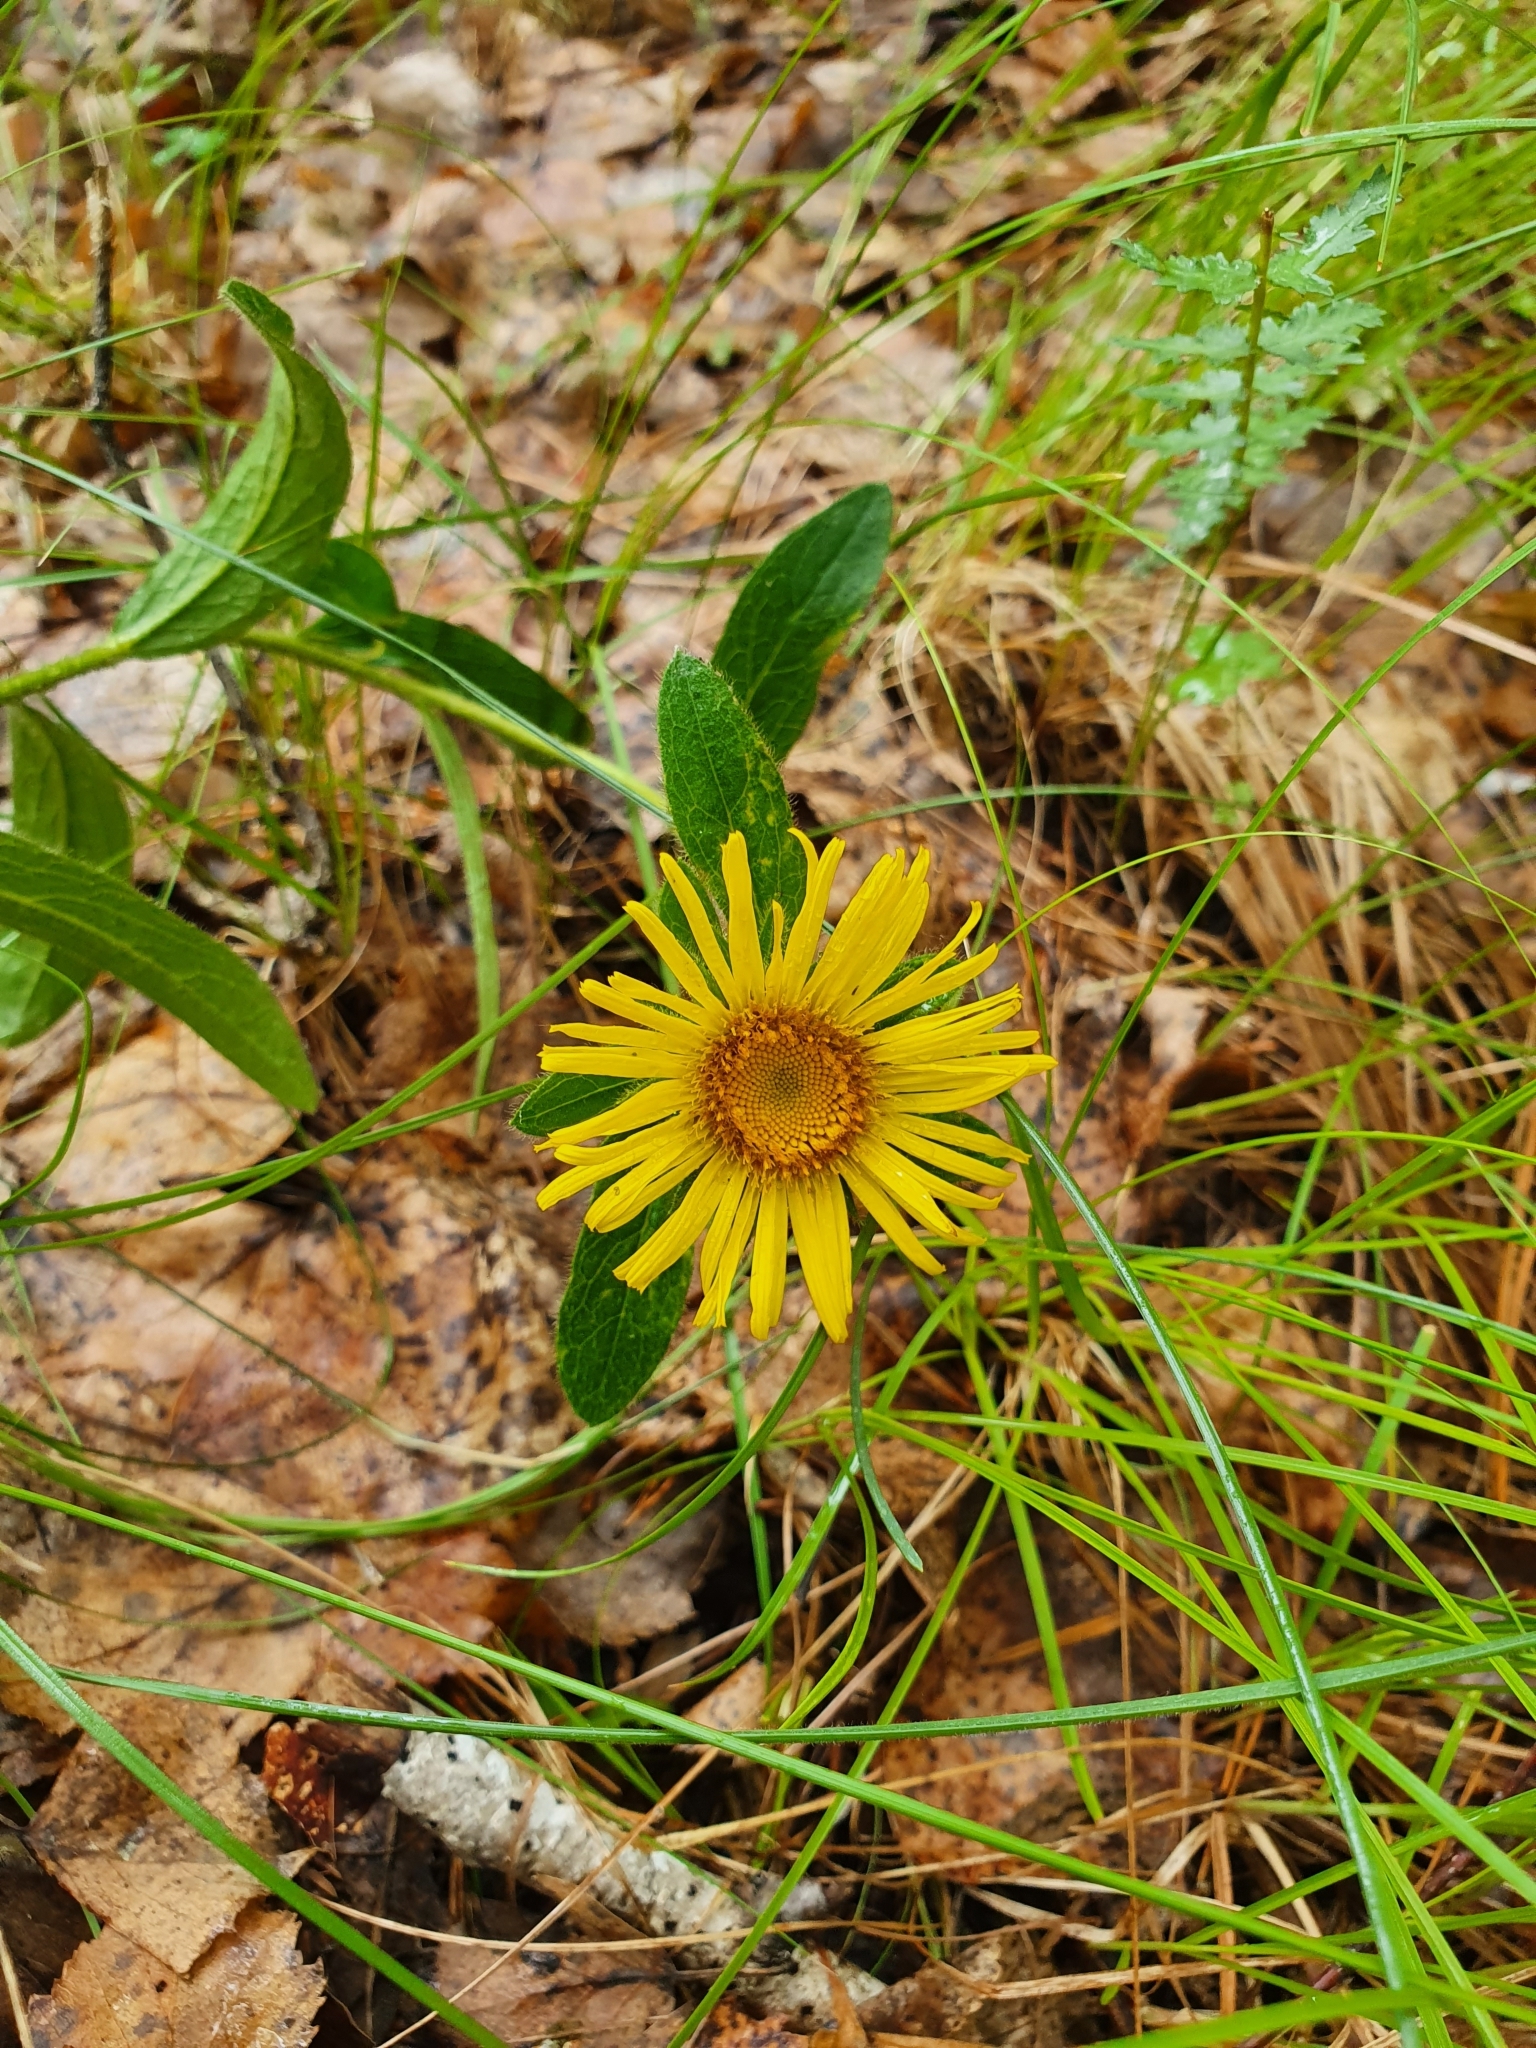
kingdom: Plantae
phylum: Tracheophyta
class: Magnoliopsida
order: Asterales
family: Asteraceae
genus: Pentanema
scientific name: Pentanema salicinum
